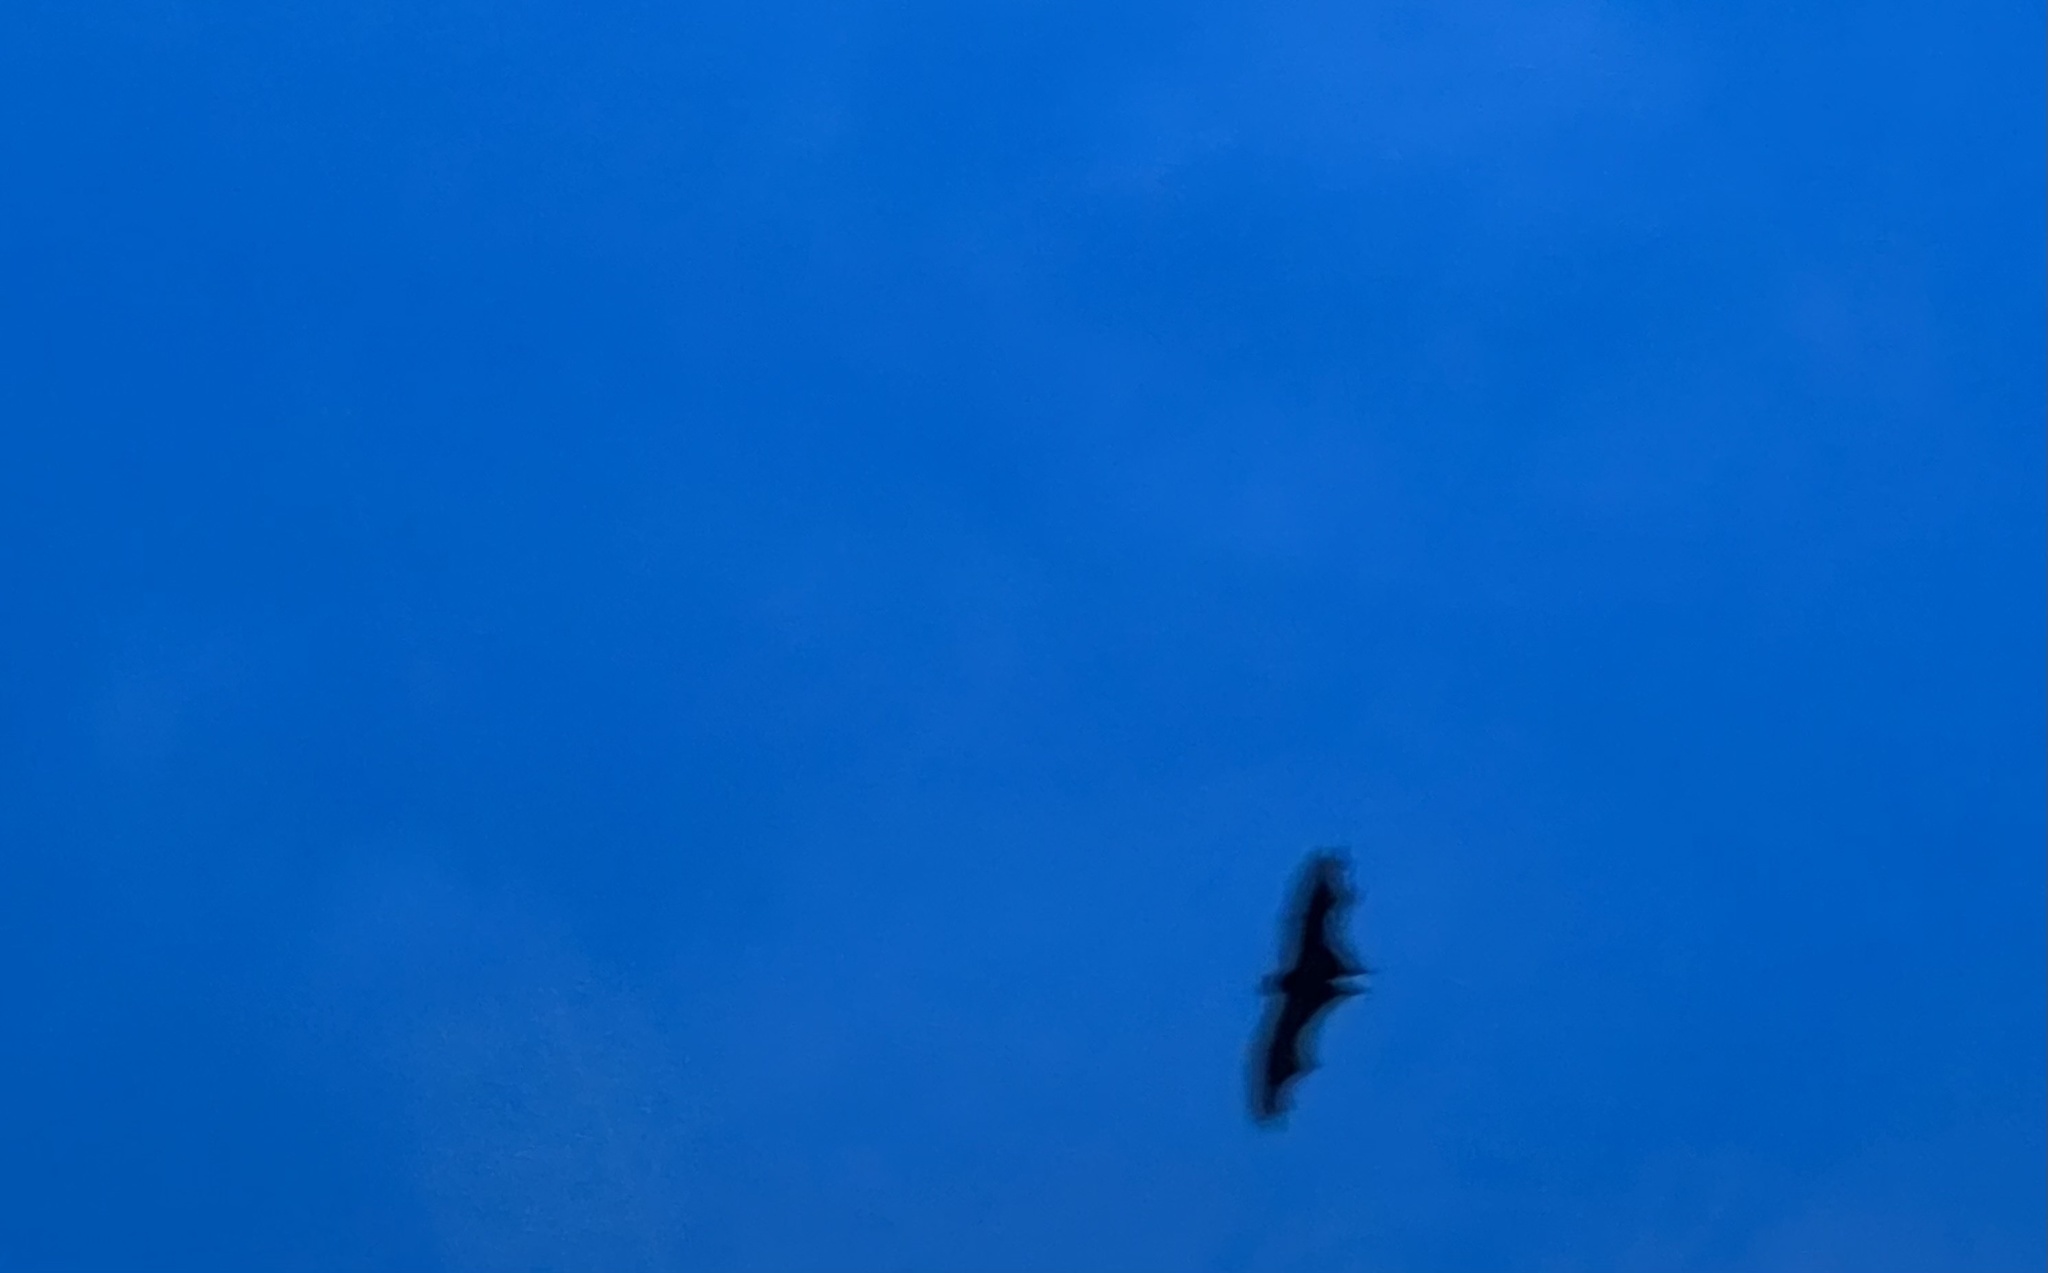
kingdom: Animalia
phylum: Chordata
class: Mammalia
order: Chiroptera
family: Pteropodidae
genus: Pteropus
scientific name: Pteropus vampyrus
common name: Large flying fox
